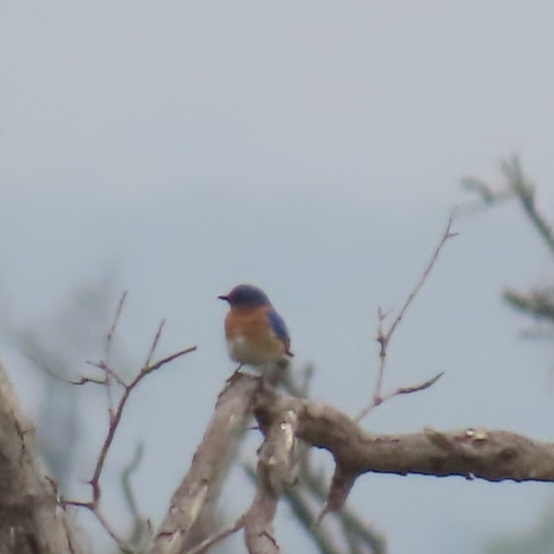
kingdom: Animalia
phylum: Chordata
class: Aves
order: Passeriformes
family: Turdidae
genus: Sialia
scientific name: Sialia sialis
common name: Eastern bluebird
